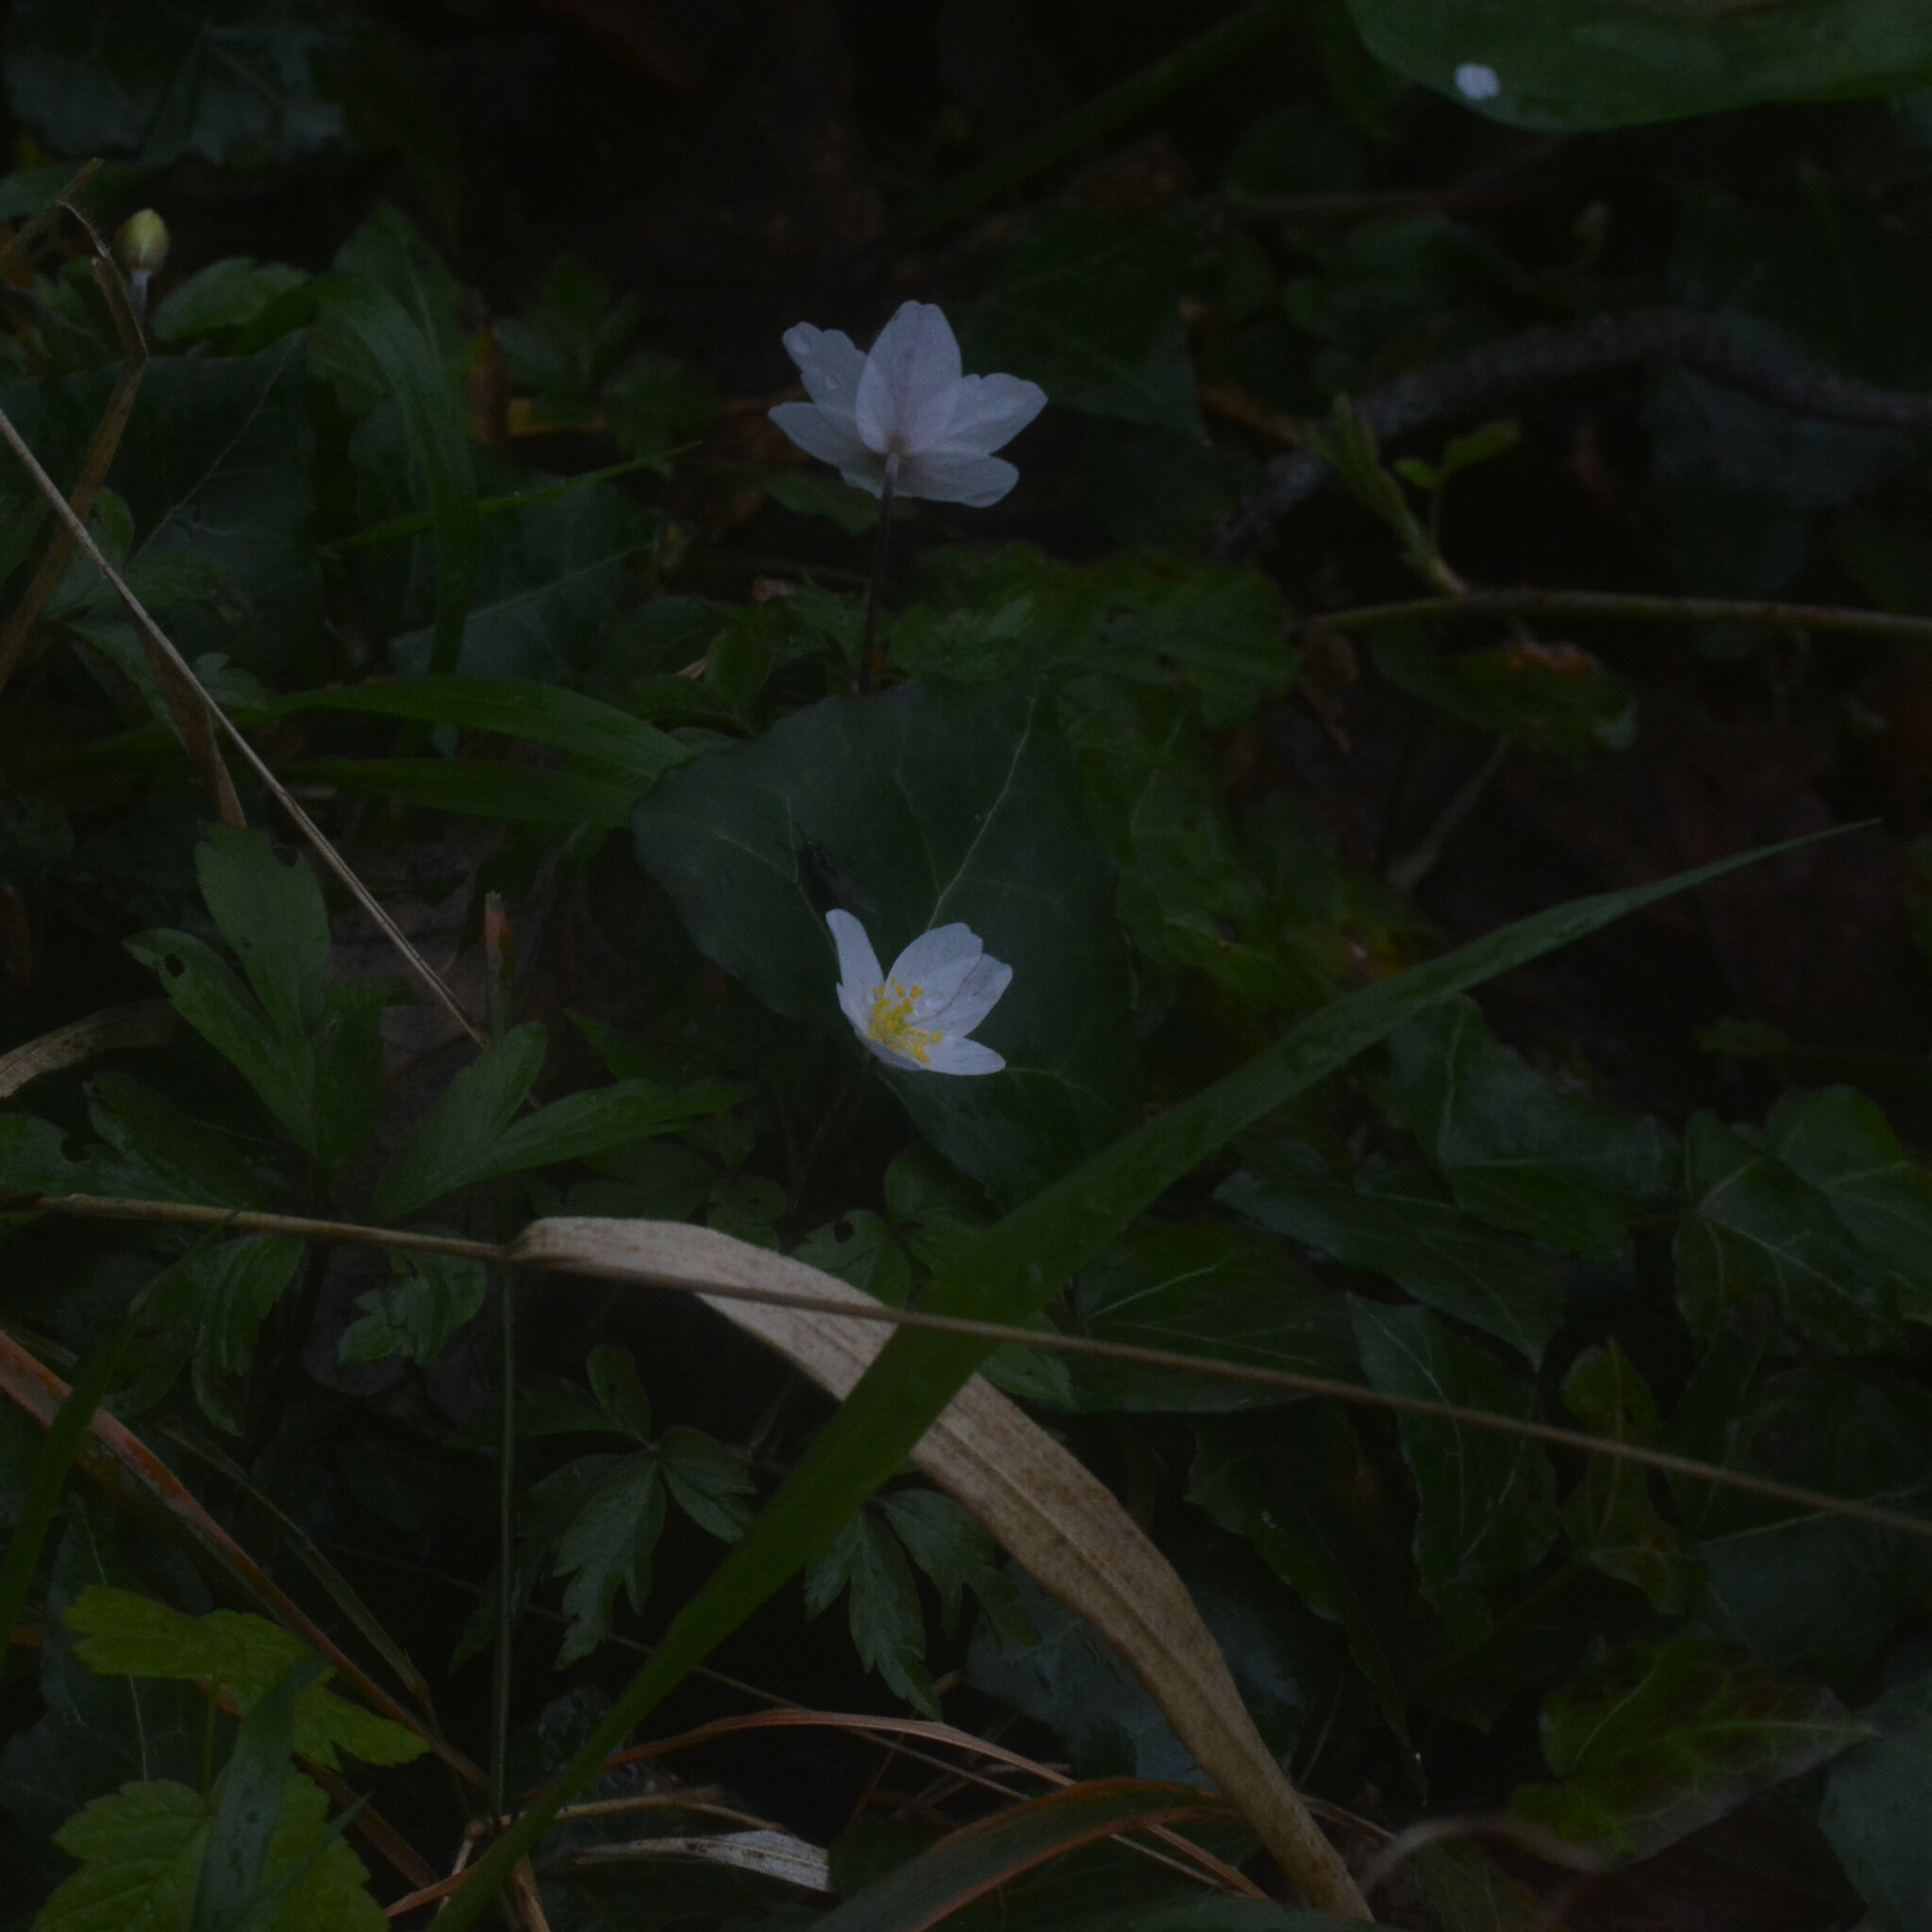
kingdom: Plantae
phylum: Tracheophyta
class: Magnoliopsida
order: Ranunculales
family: Ranunculaceae
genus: Anemone
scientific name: Anemone nemorosa
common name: Wood anemone
